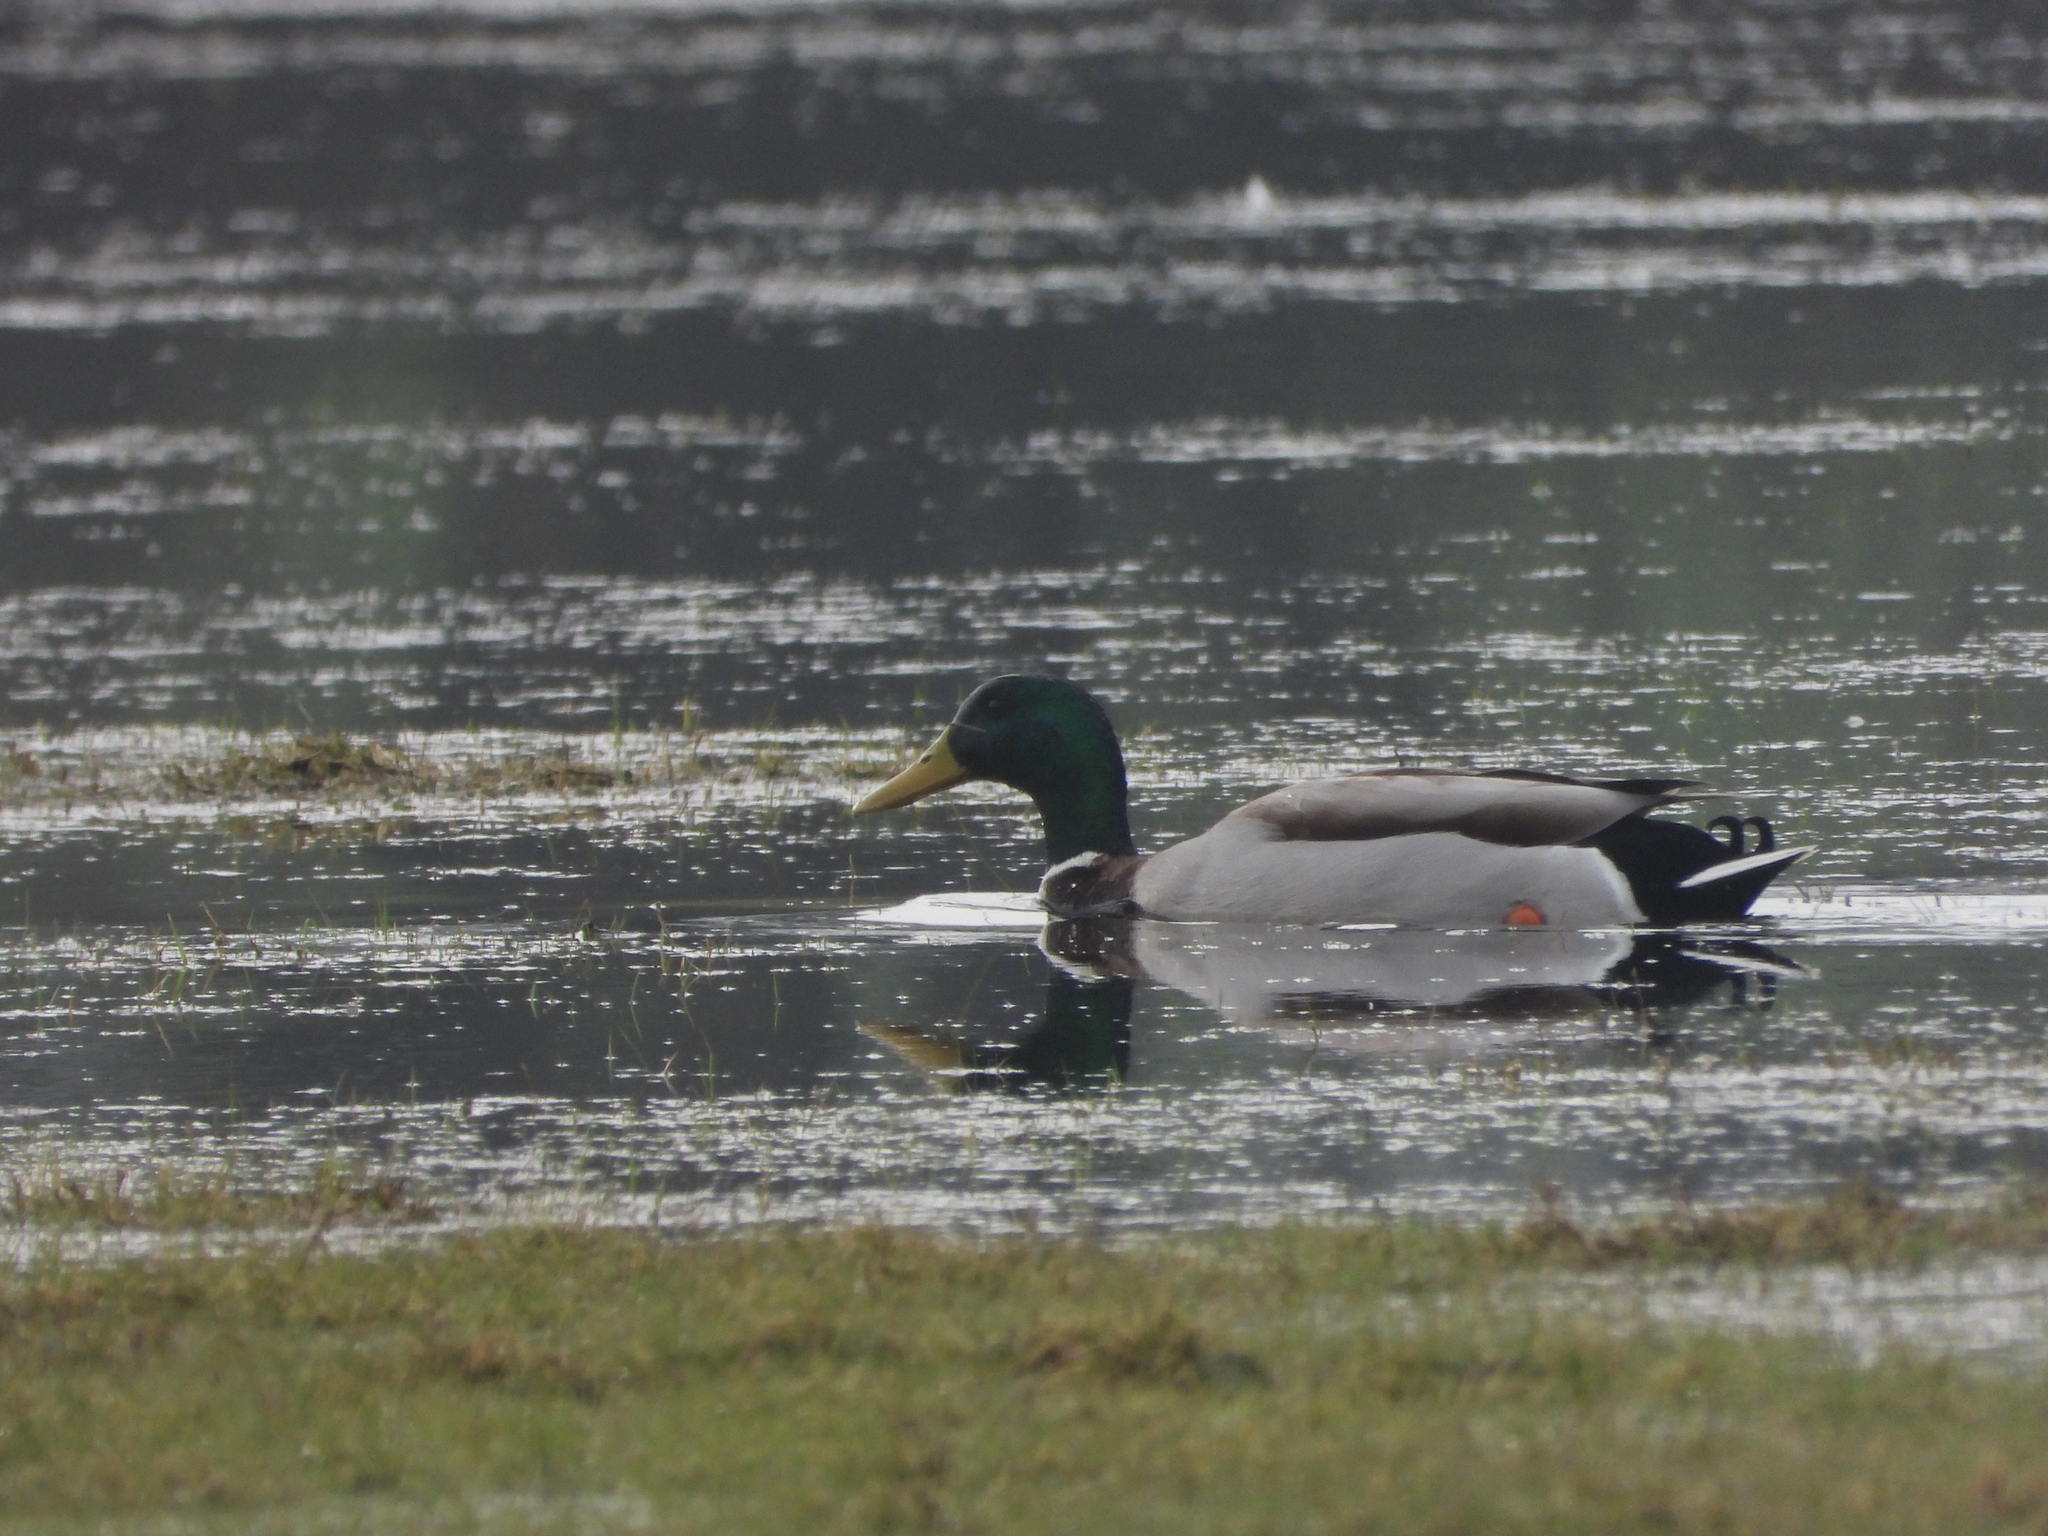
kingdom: Animalia
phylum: Chordata
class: Aves
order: Anseriformes
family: Anatidae
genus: Anas
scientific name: Anas platyrhynchos
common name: Mallard
